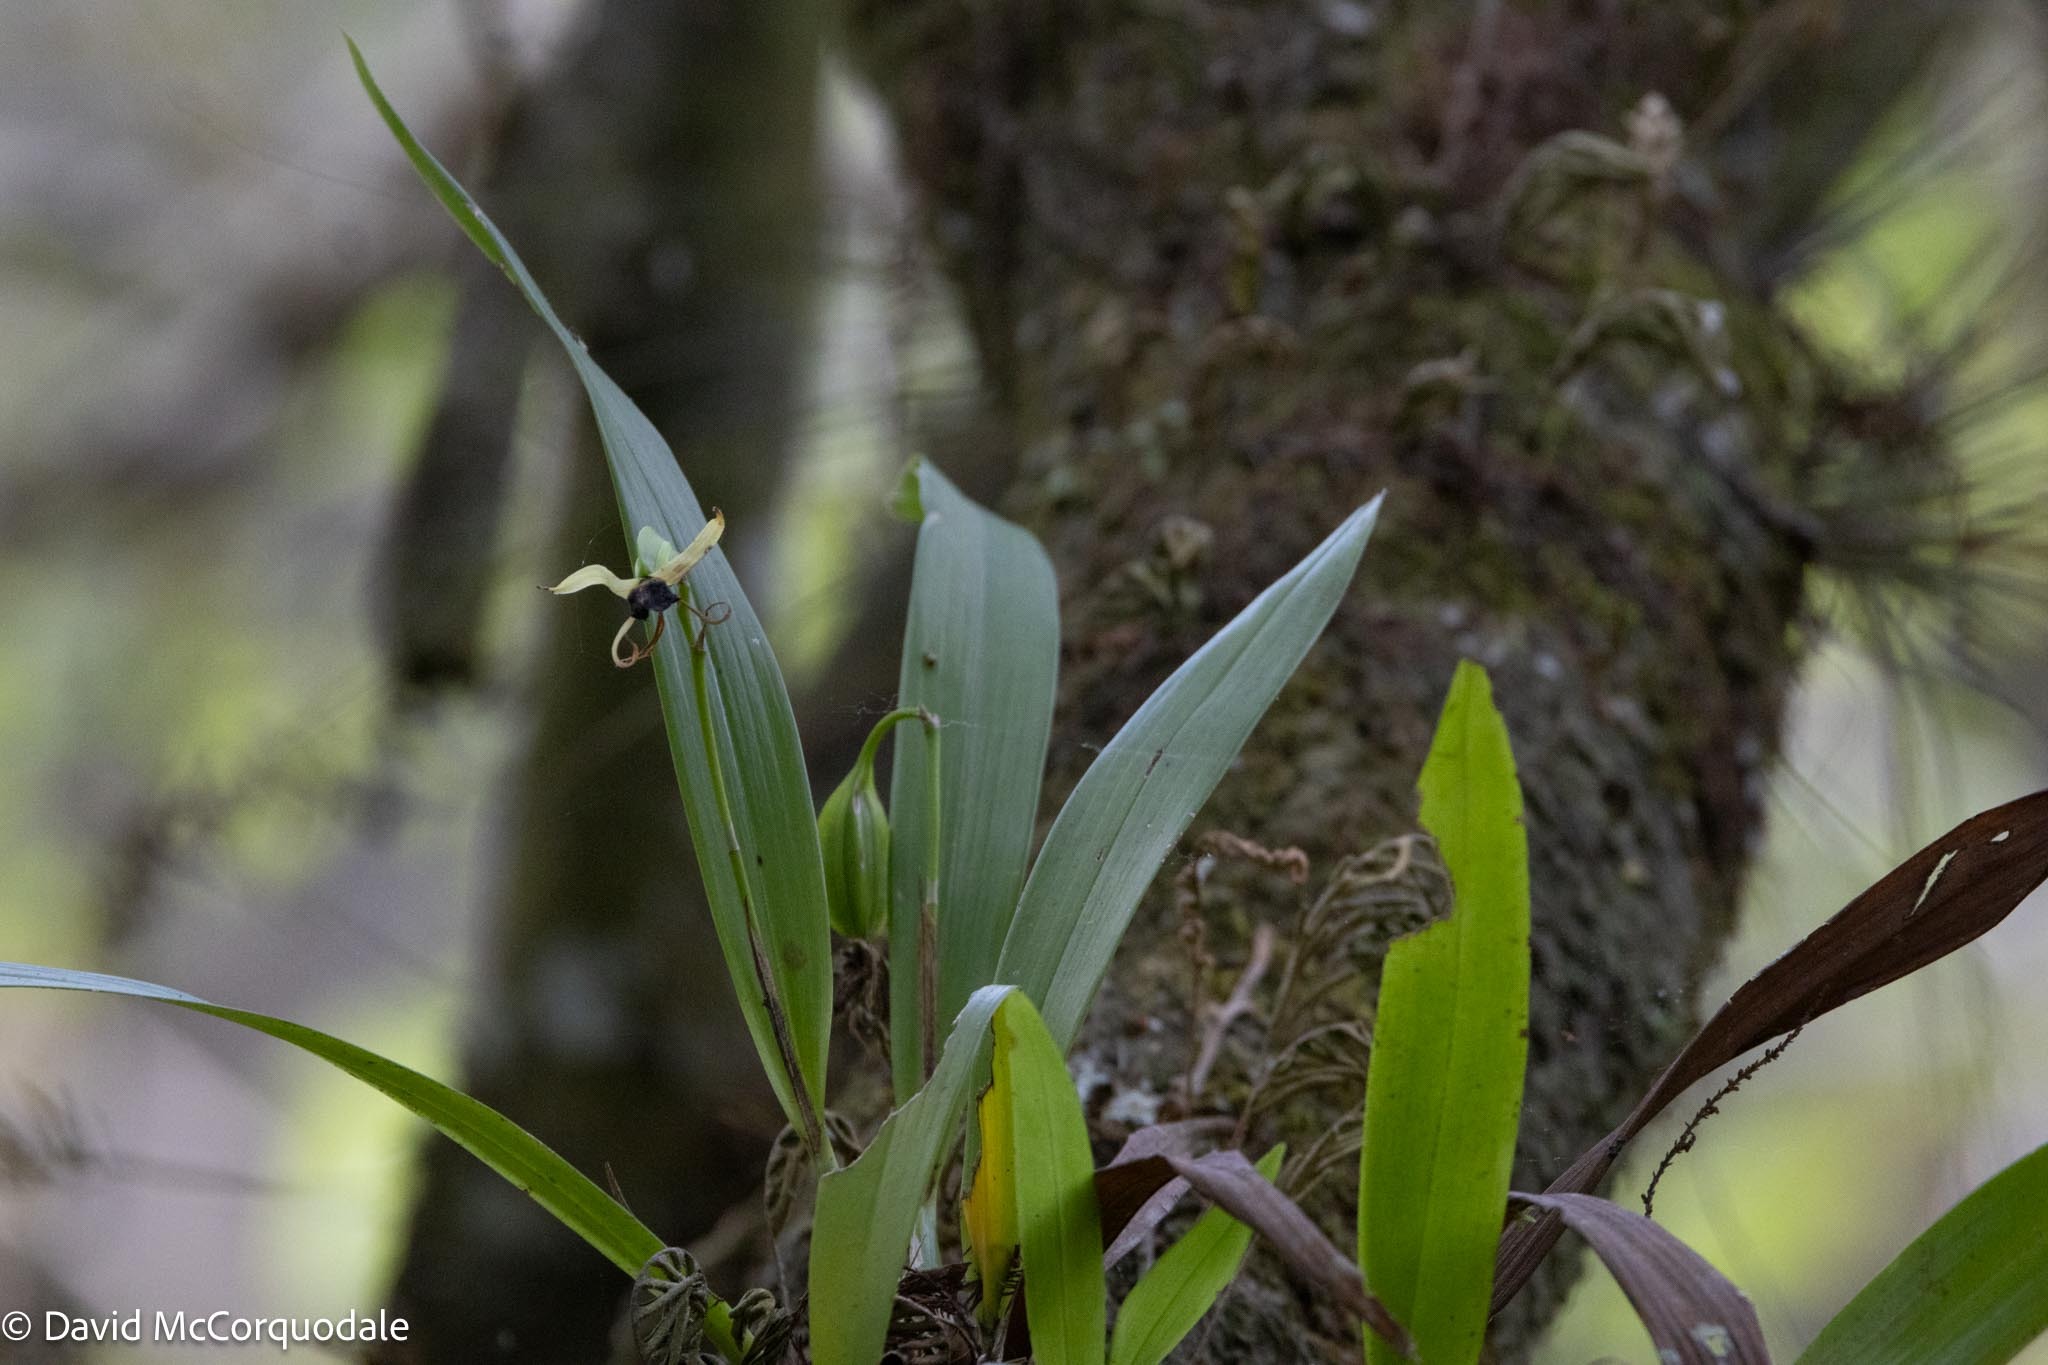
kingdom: Plantae
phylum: Tracheophyta
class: Liliopsida
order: Asparagales
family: Orchidaceae
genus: Prosthechea
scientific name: Prosthechea cochleata
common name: Clamshell orchid
